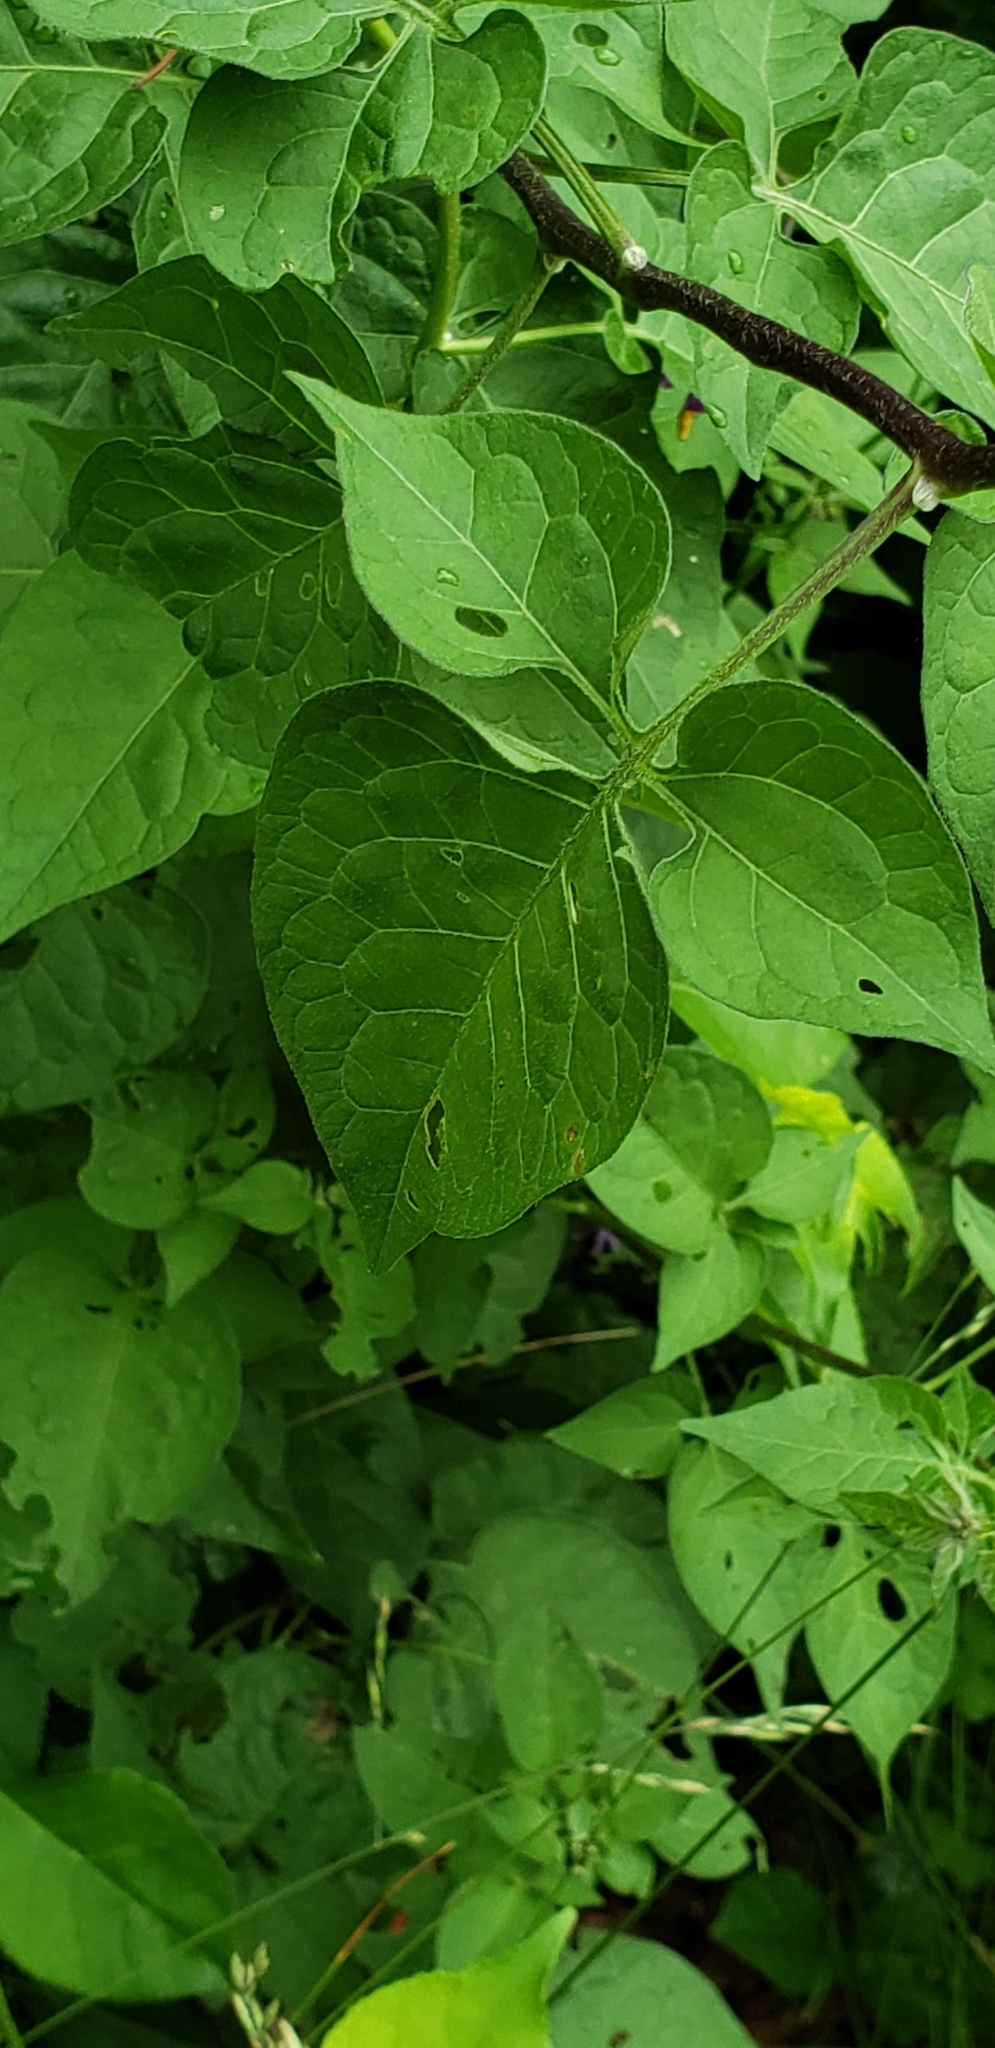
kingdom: Plantae
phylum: Tracheophyta
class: Magnoliopsida
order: Solanales
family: Solanaceae
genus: Solanum
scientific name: Solanum dulcamara
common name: Climbing nightshade
